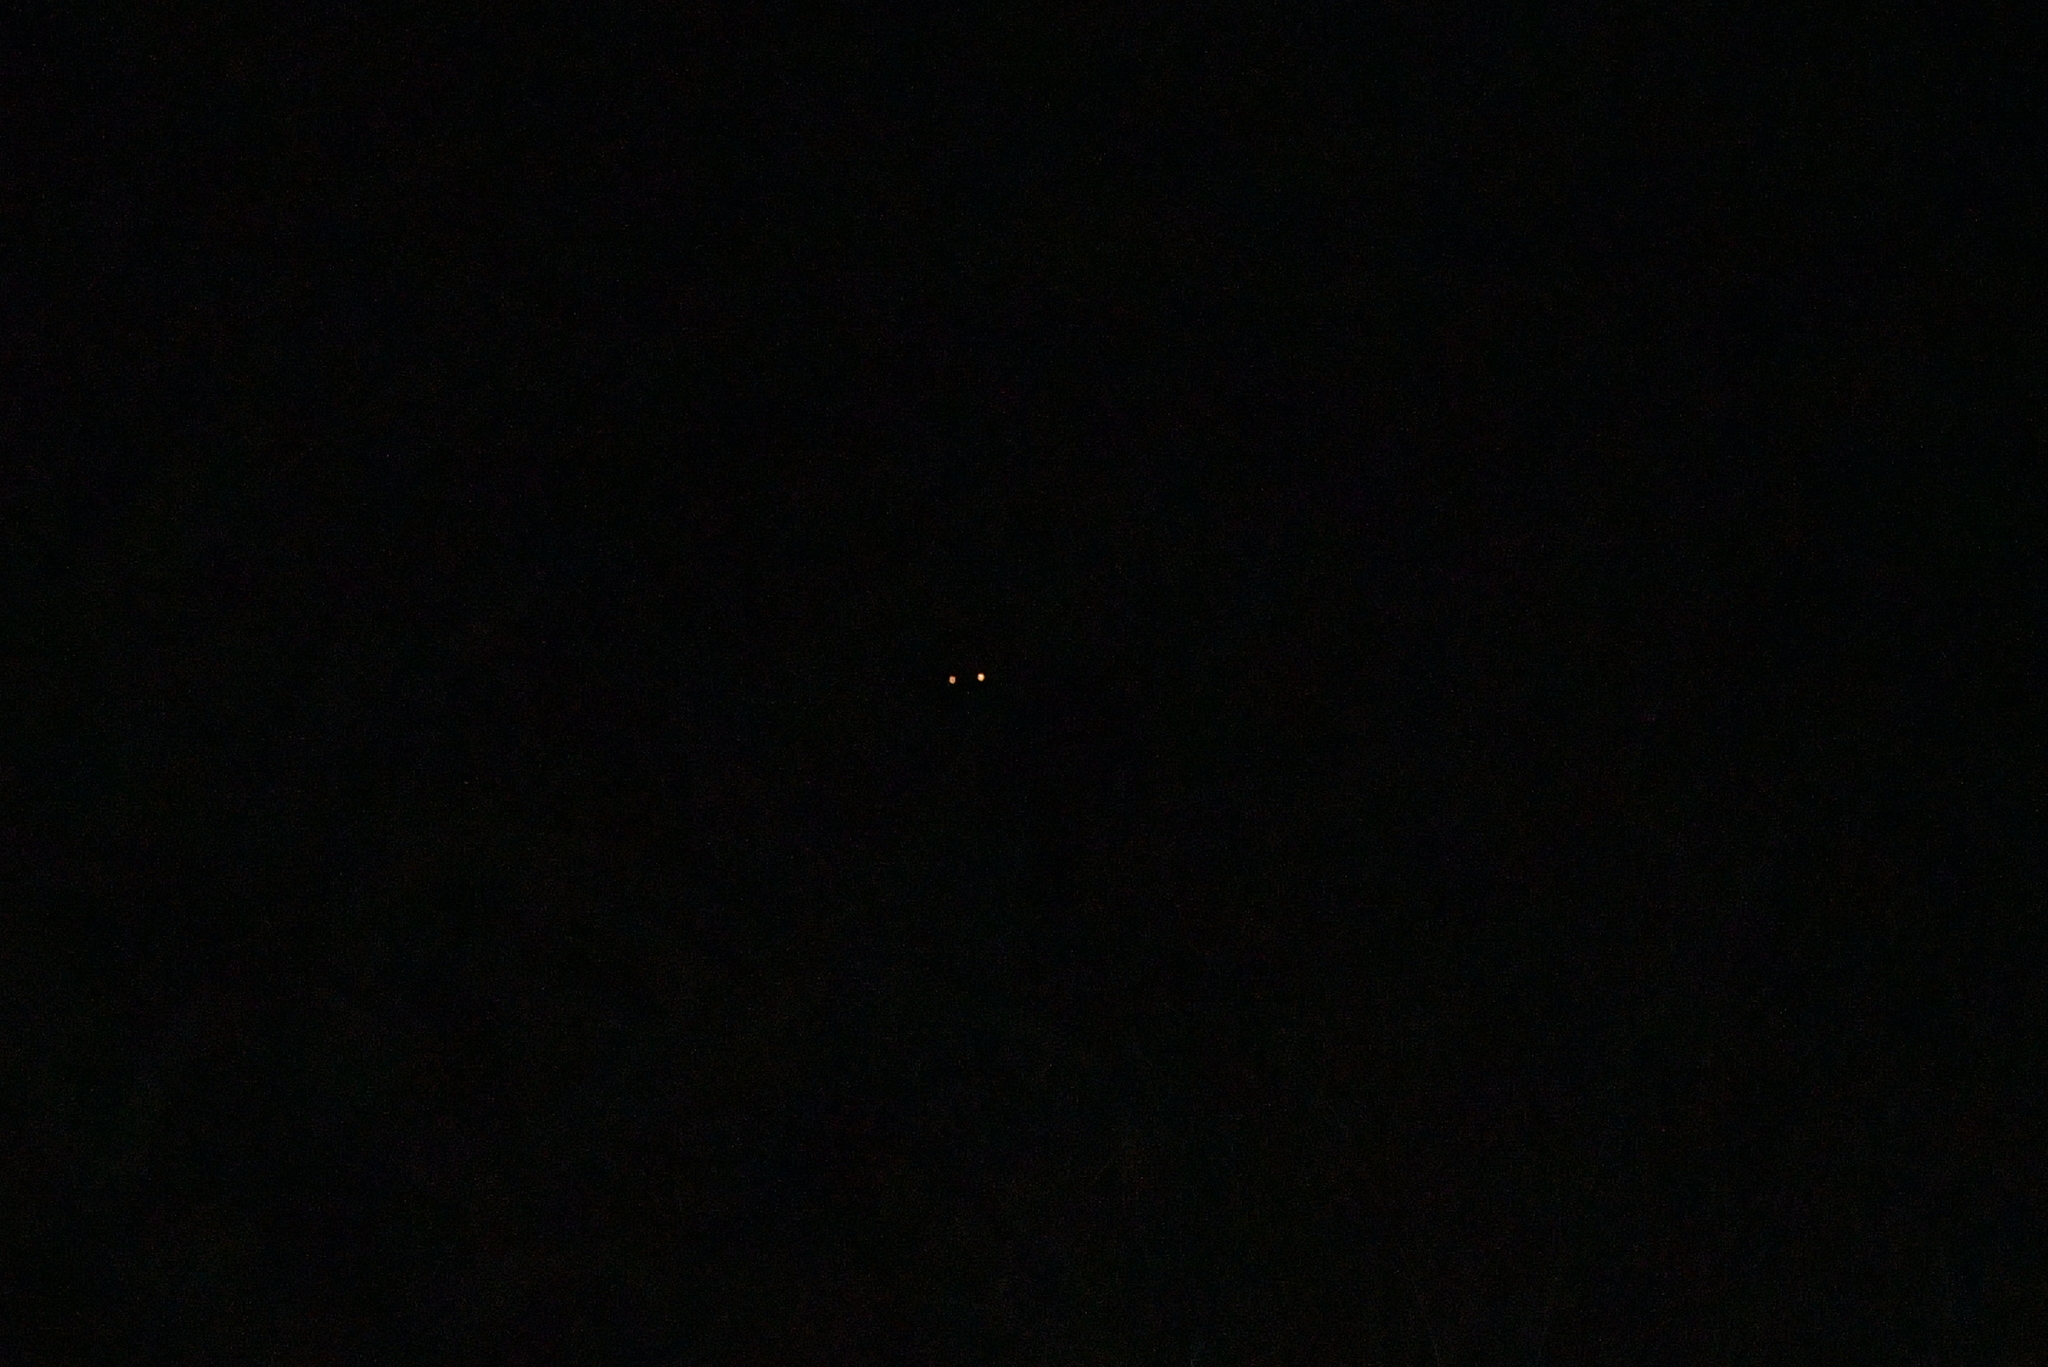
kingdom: Animalia
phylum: Chordata
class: Mammalia
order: Diprotodontia
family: Phalangeridae
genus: Trichosurus
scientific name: Trichosurus vulpecula
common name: Common brushtail
